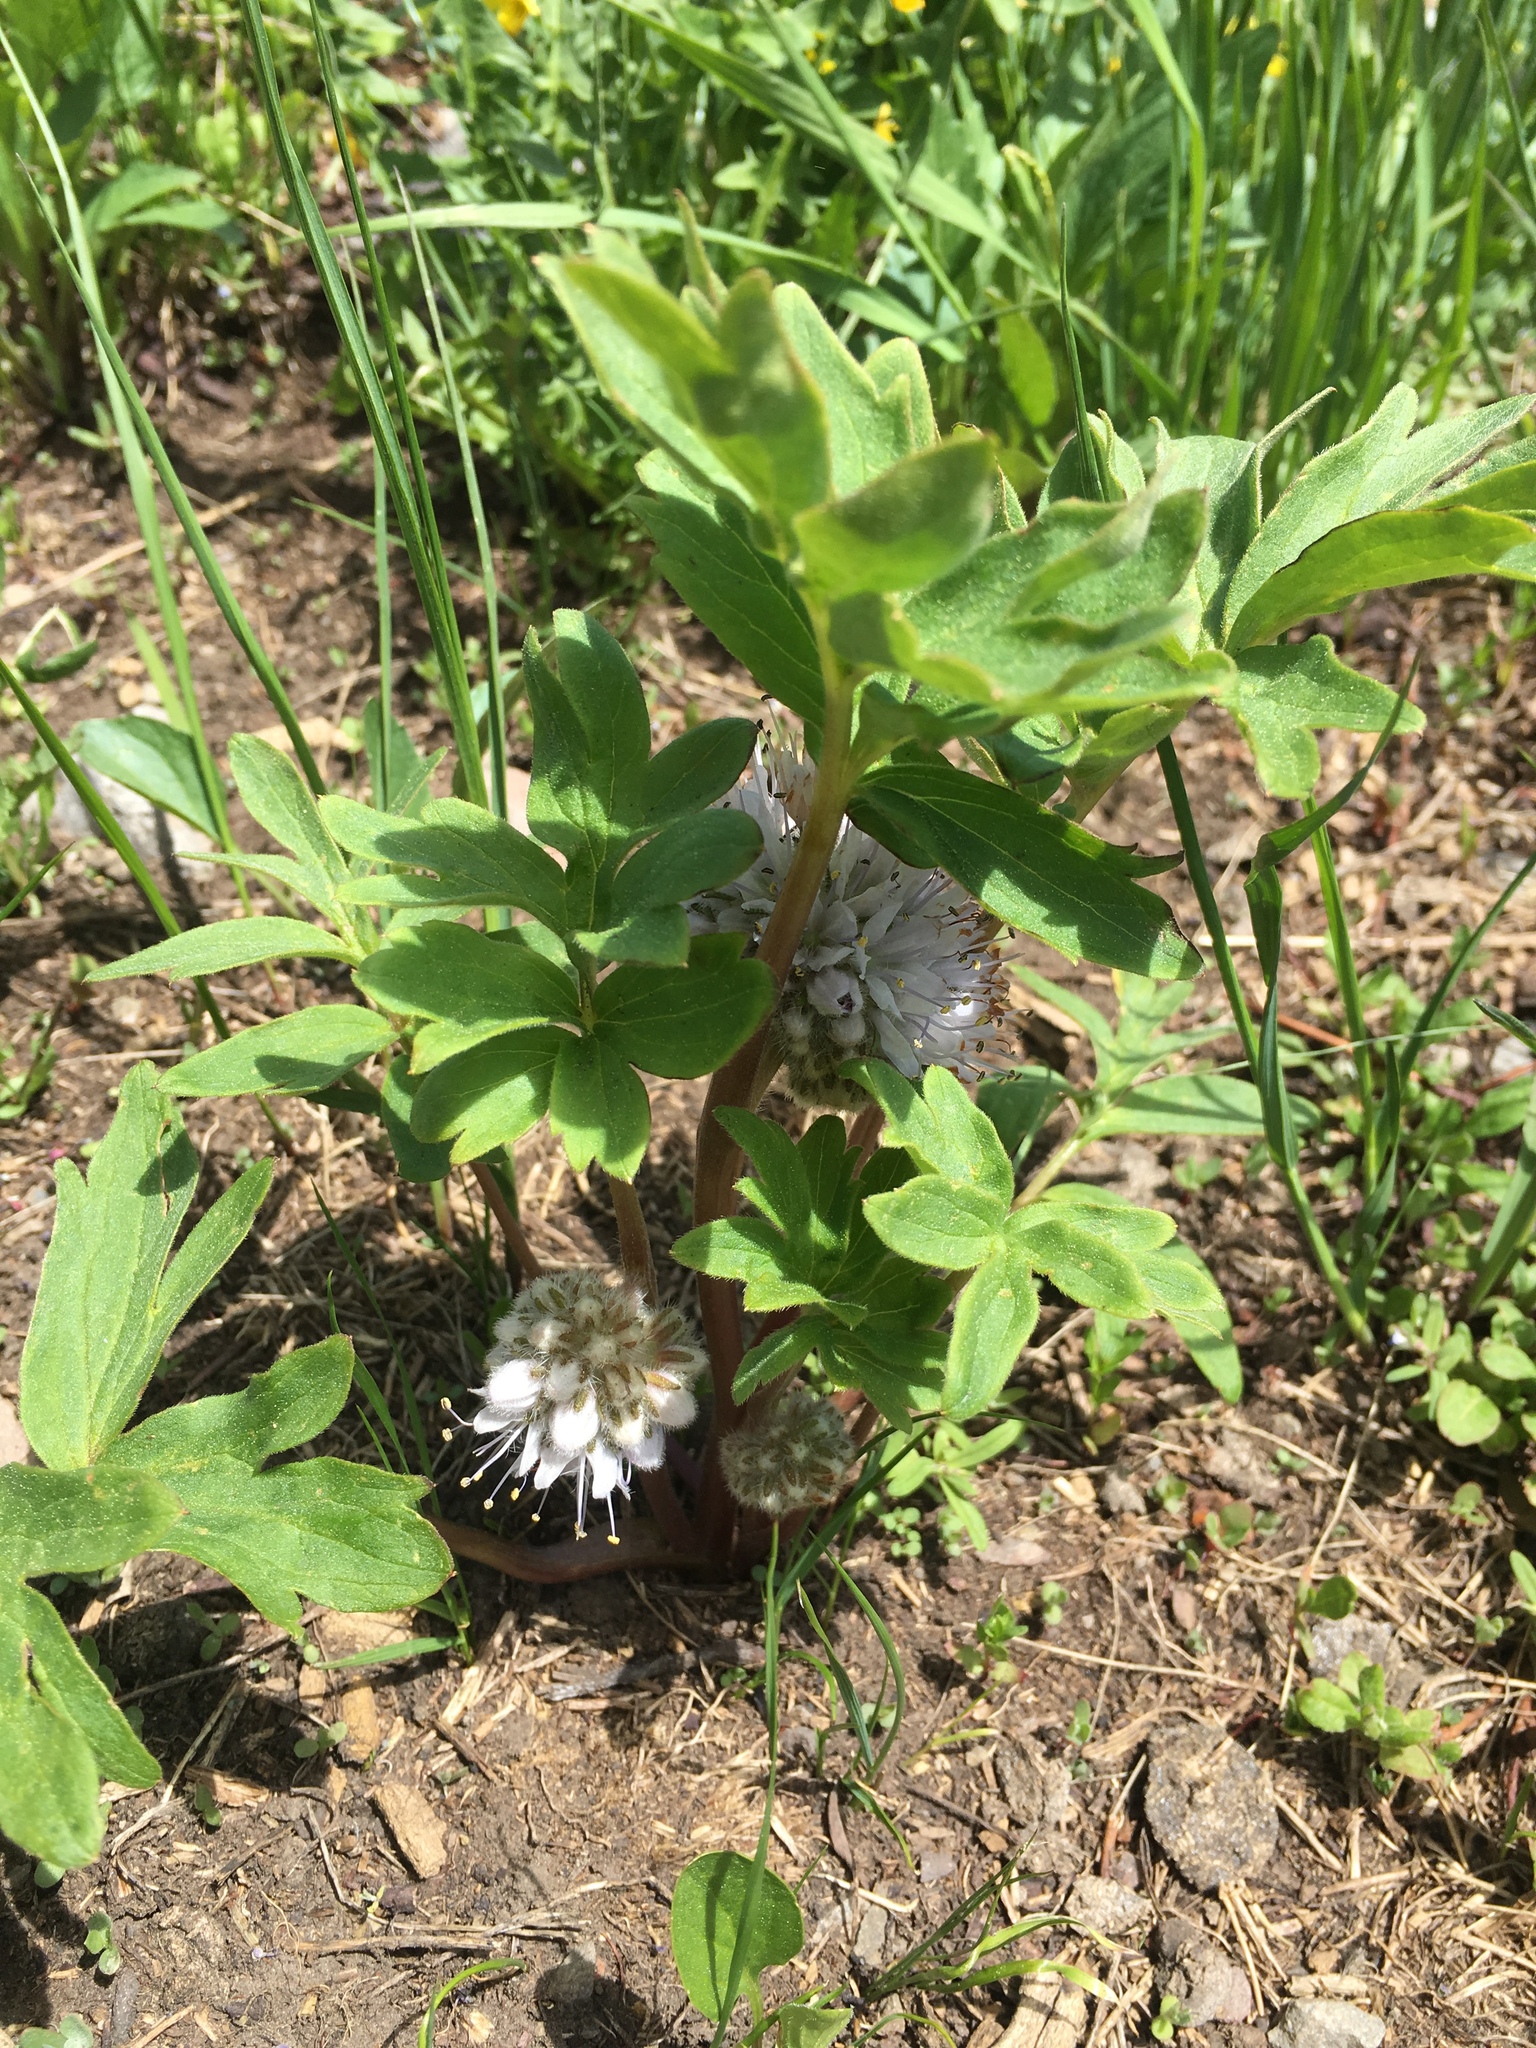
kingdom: Plantae
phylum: Tracheophyta
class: Magnoliopsida
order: Boraginales
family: Hydrophyllaceae
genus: Hydrophyllum
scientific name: Hydrophyllum capitatum
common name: Woollen-breeches
